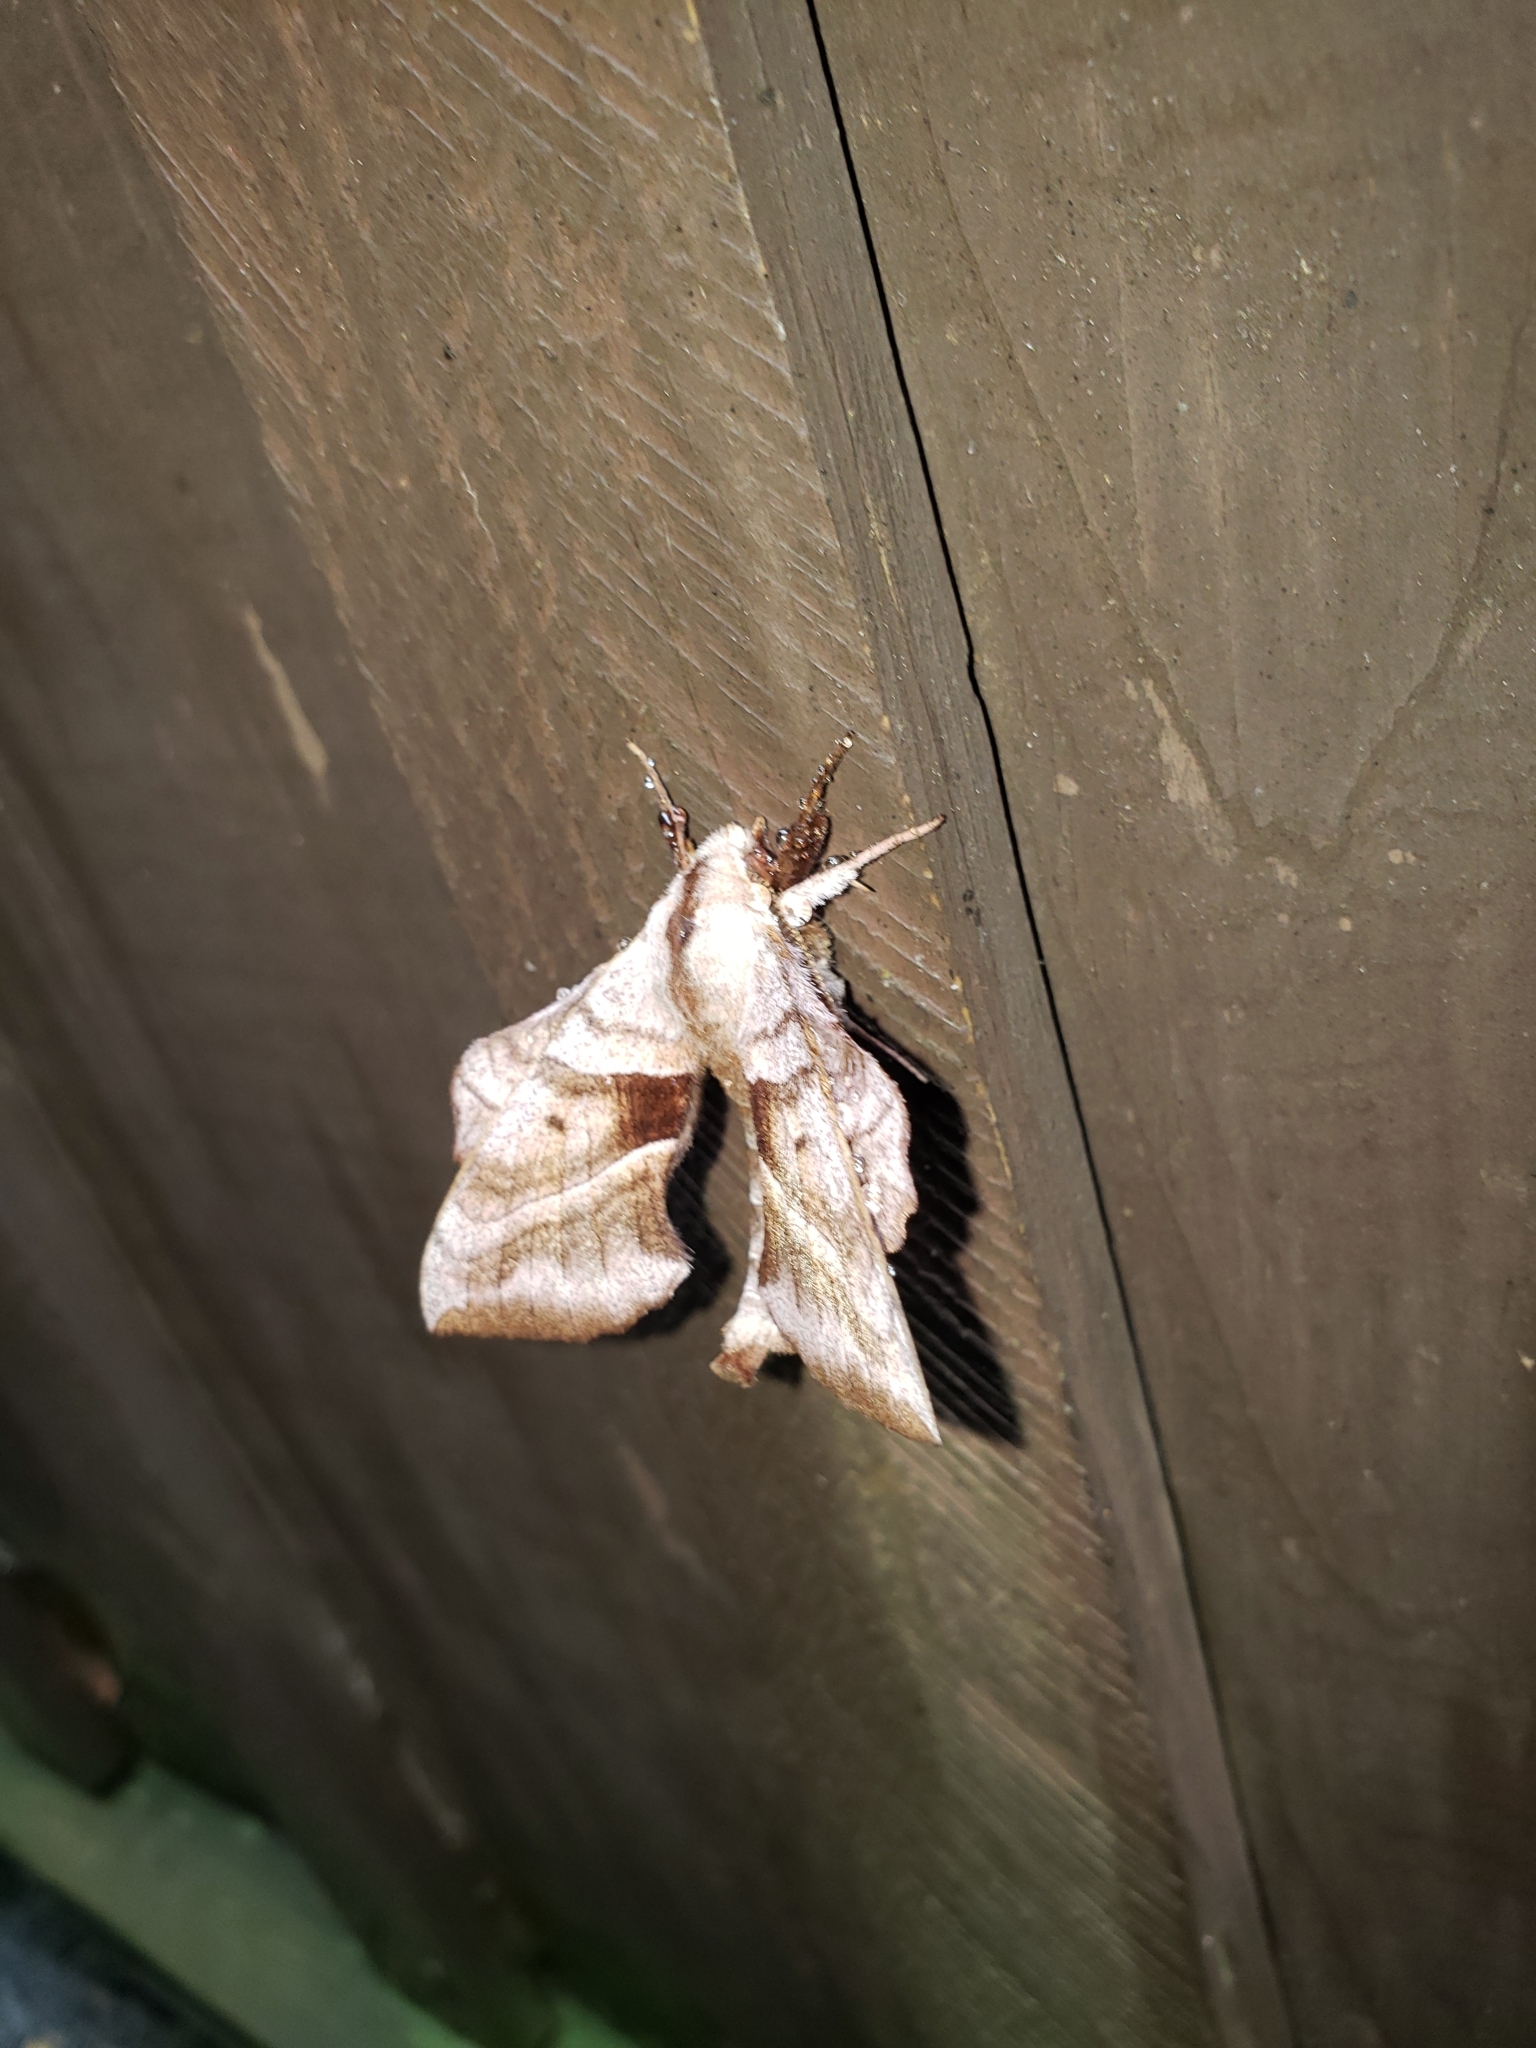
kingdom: Animalia
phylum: Arthropoda
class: Insecta
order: Lepidoptera
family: Sphingidae
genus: Amorpha
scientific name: Amorpha juglandis
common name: Walnut sphinx
